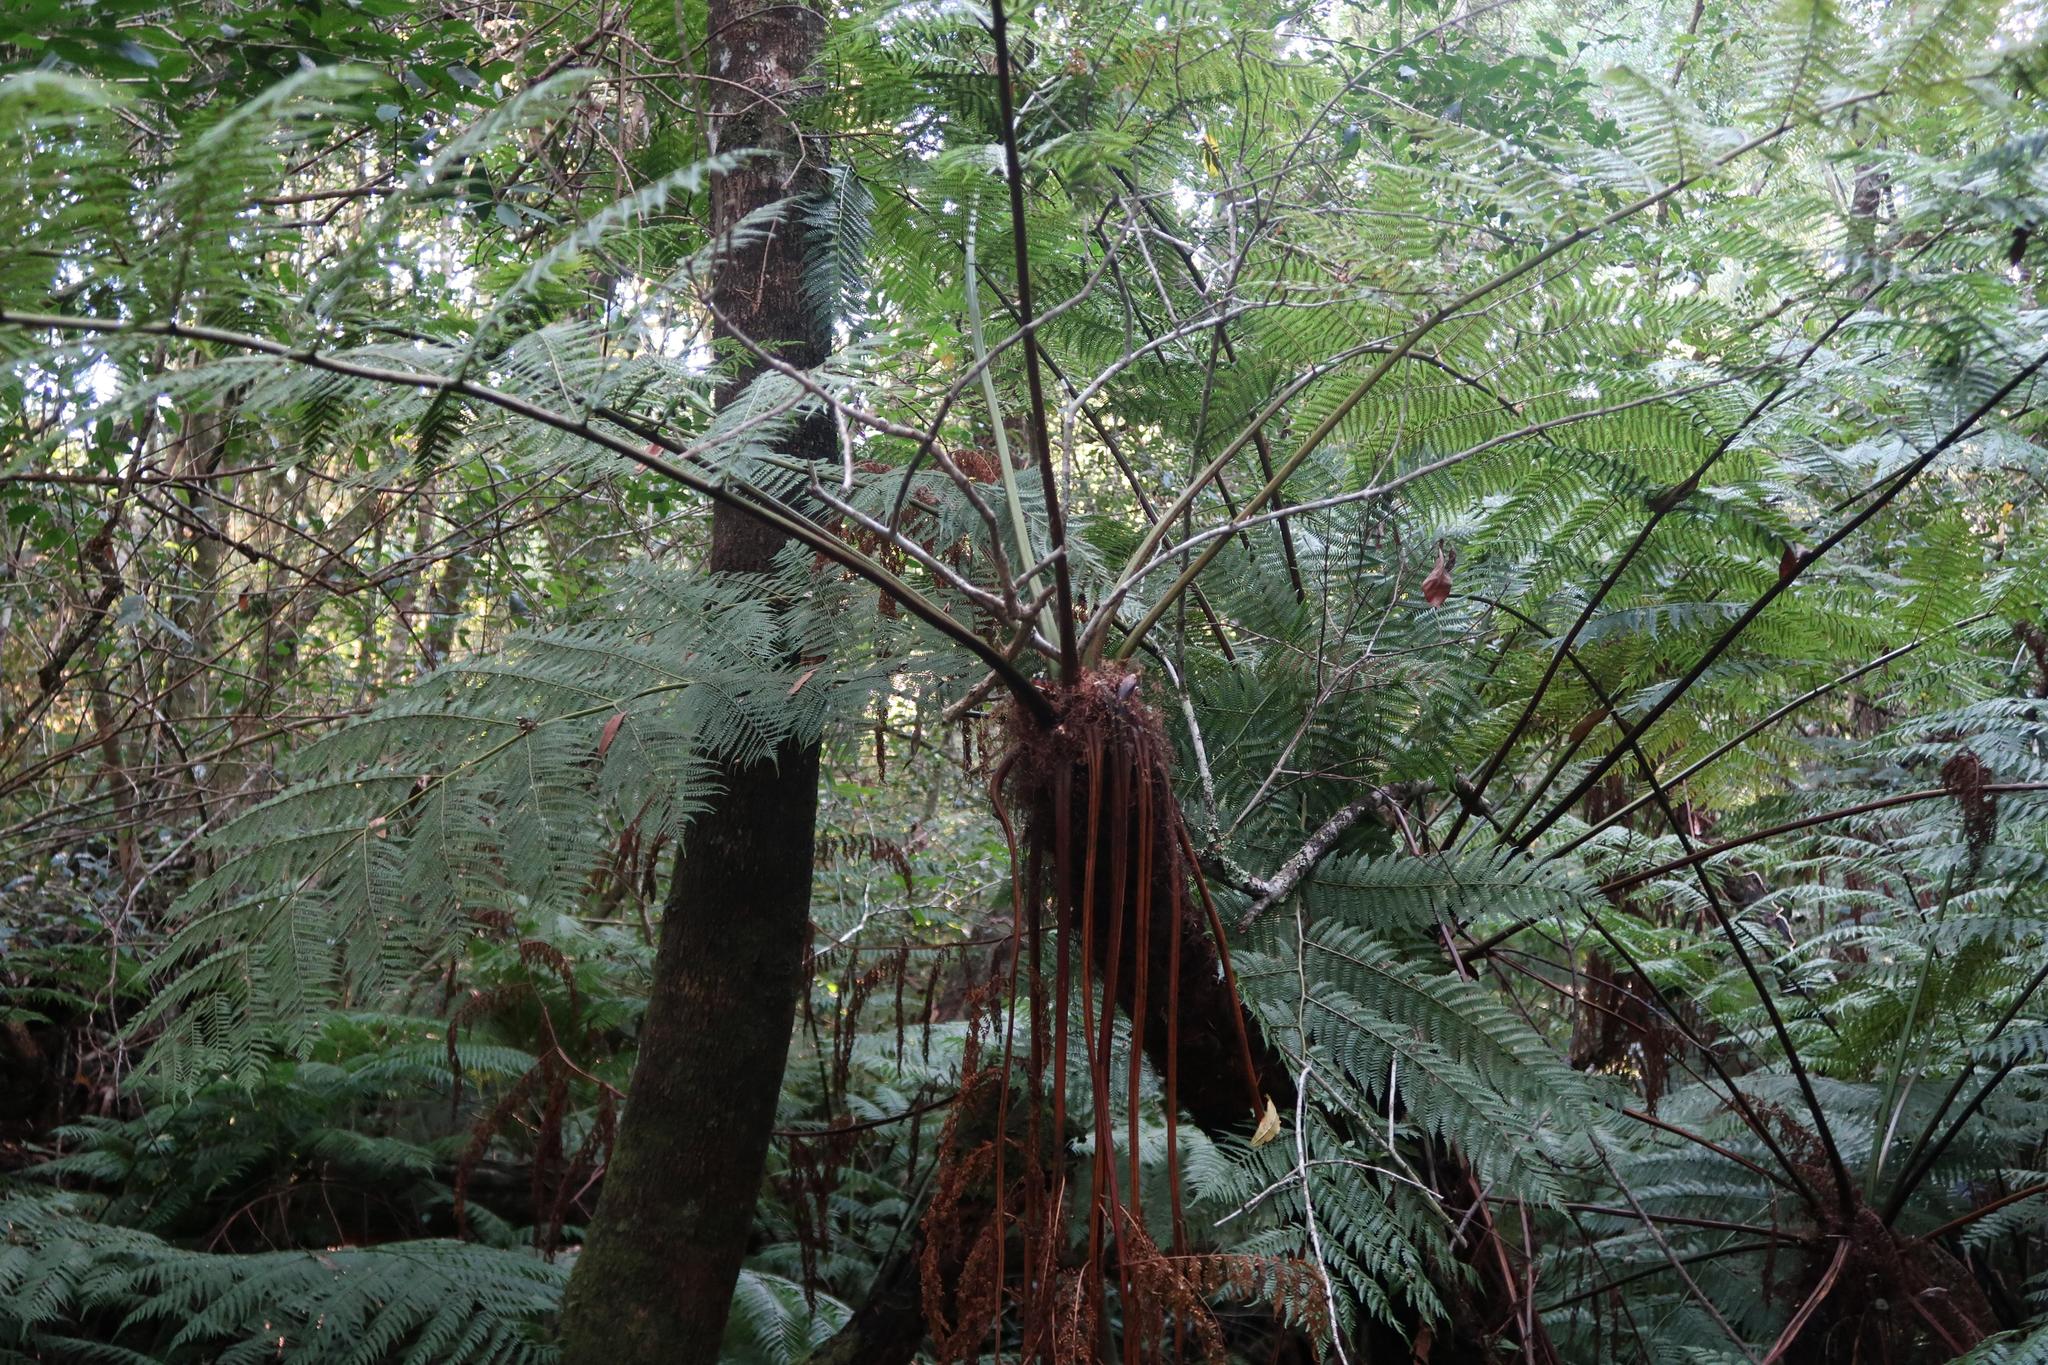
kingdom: Plantae
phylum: Tracheophyta
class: Polypodiopsida
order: Cyatheales
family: Cyatheaceae
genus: Gymnosphaera
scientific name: Gymnosphaera capensis
